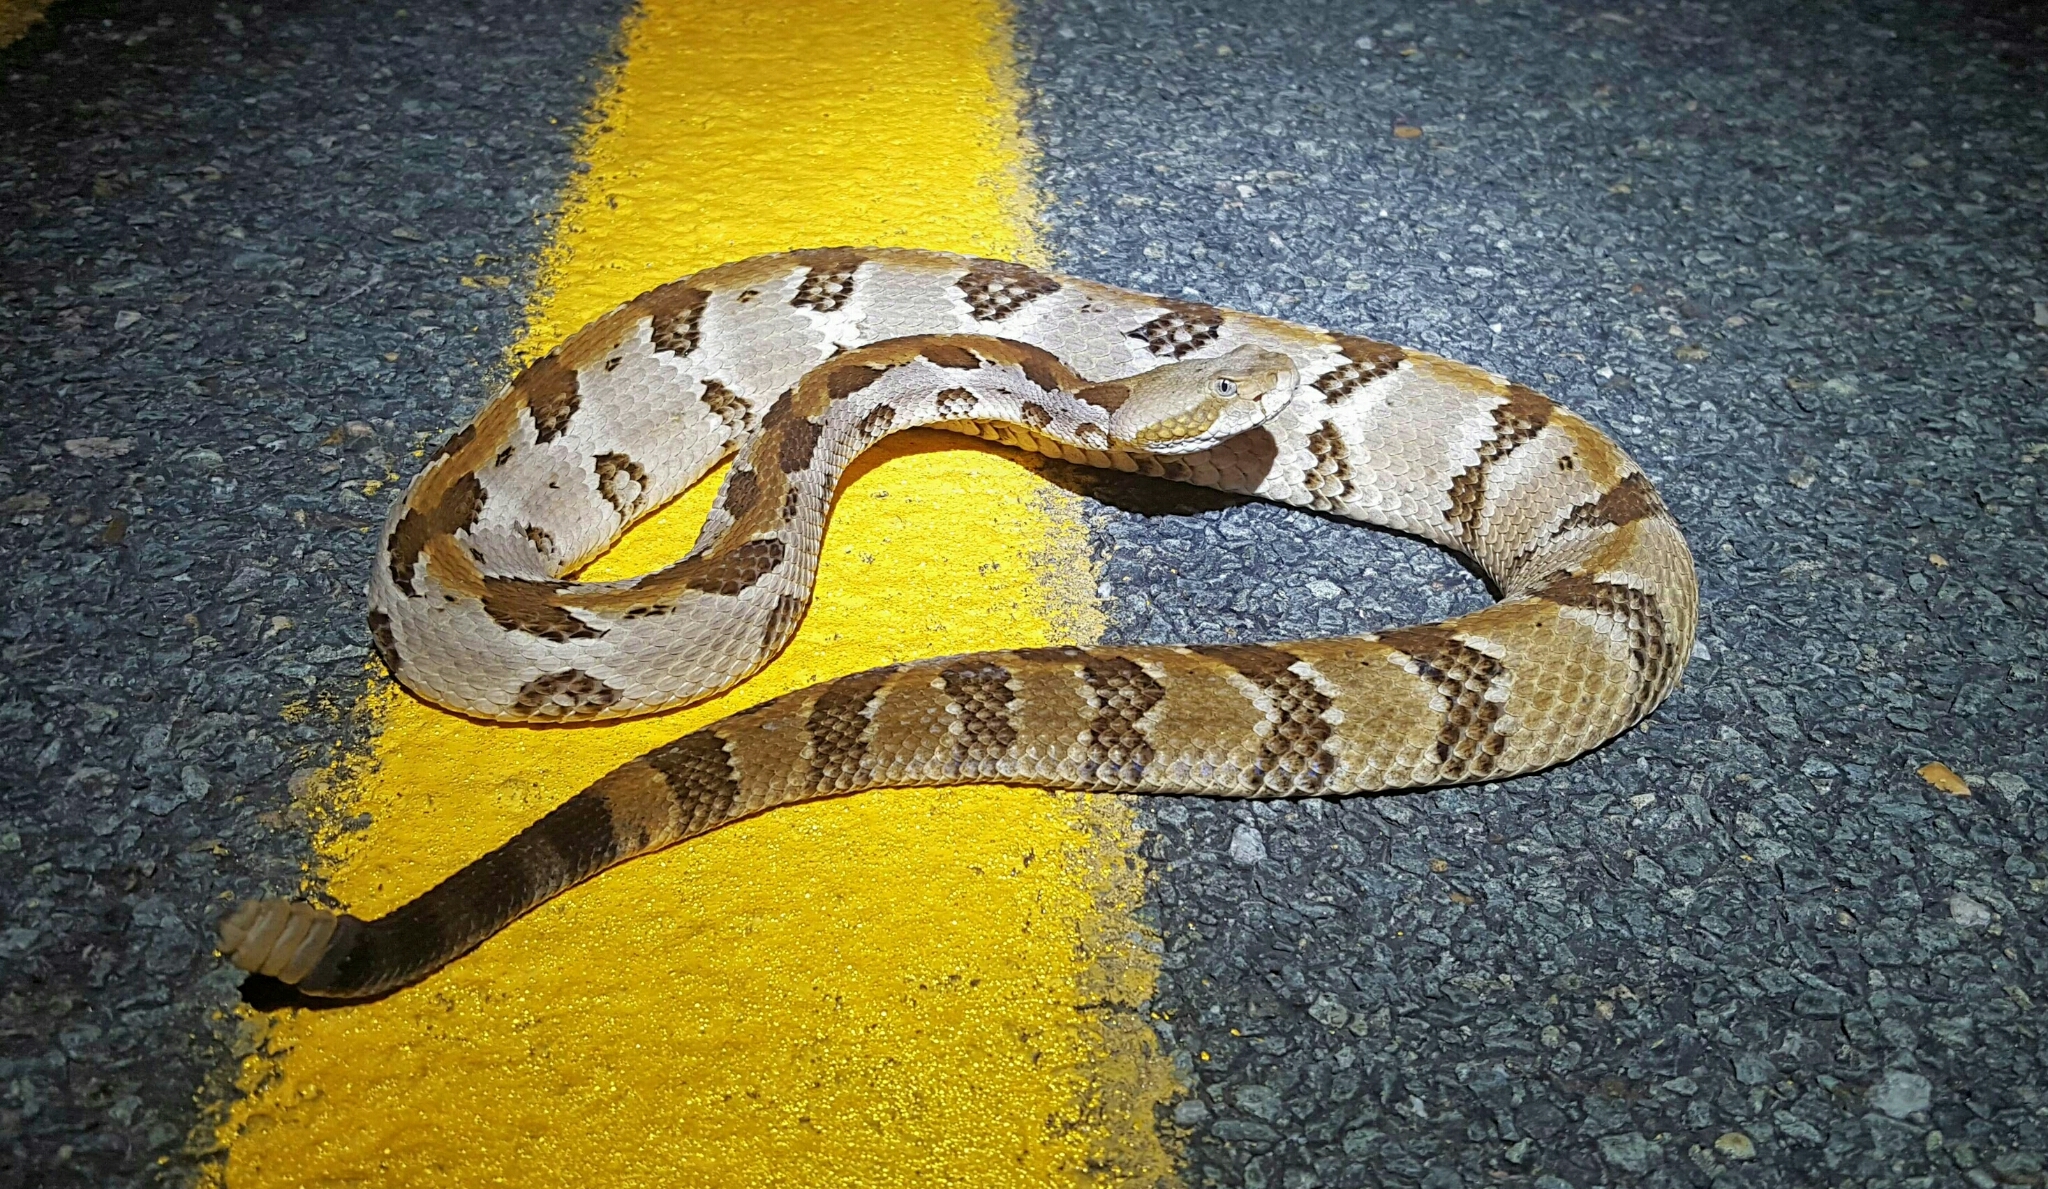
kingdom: Animalia
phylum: Chordata
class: Squamata
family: Viperidae
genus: Crotalus
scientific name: Crotalus horridus
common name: Timber rattlesnake
